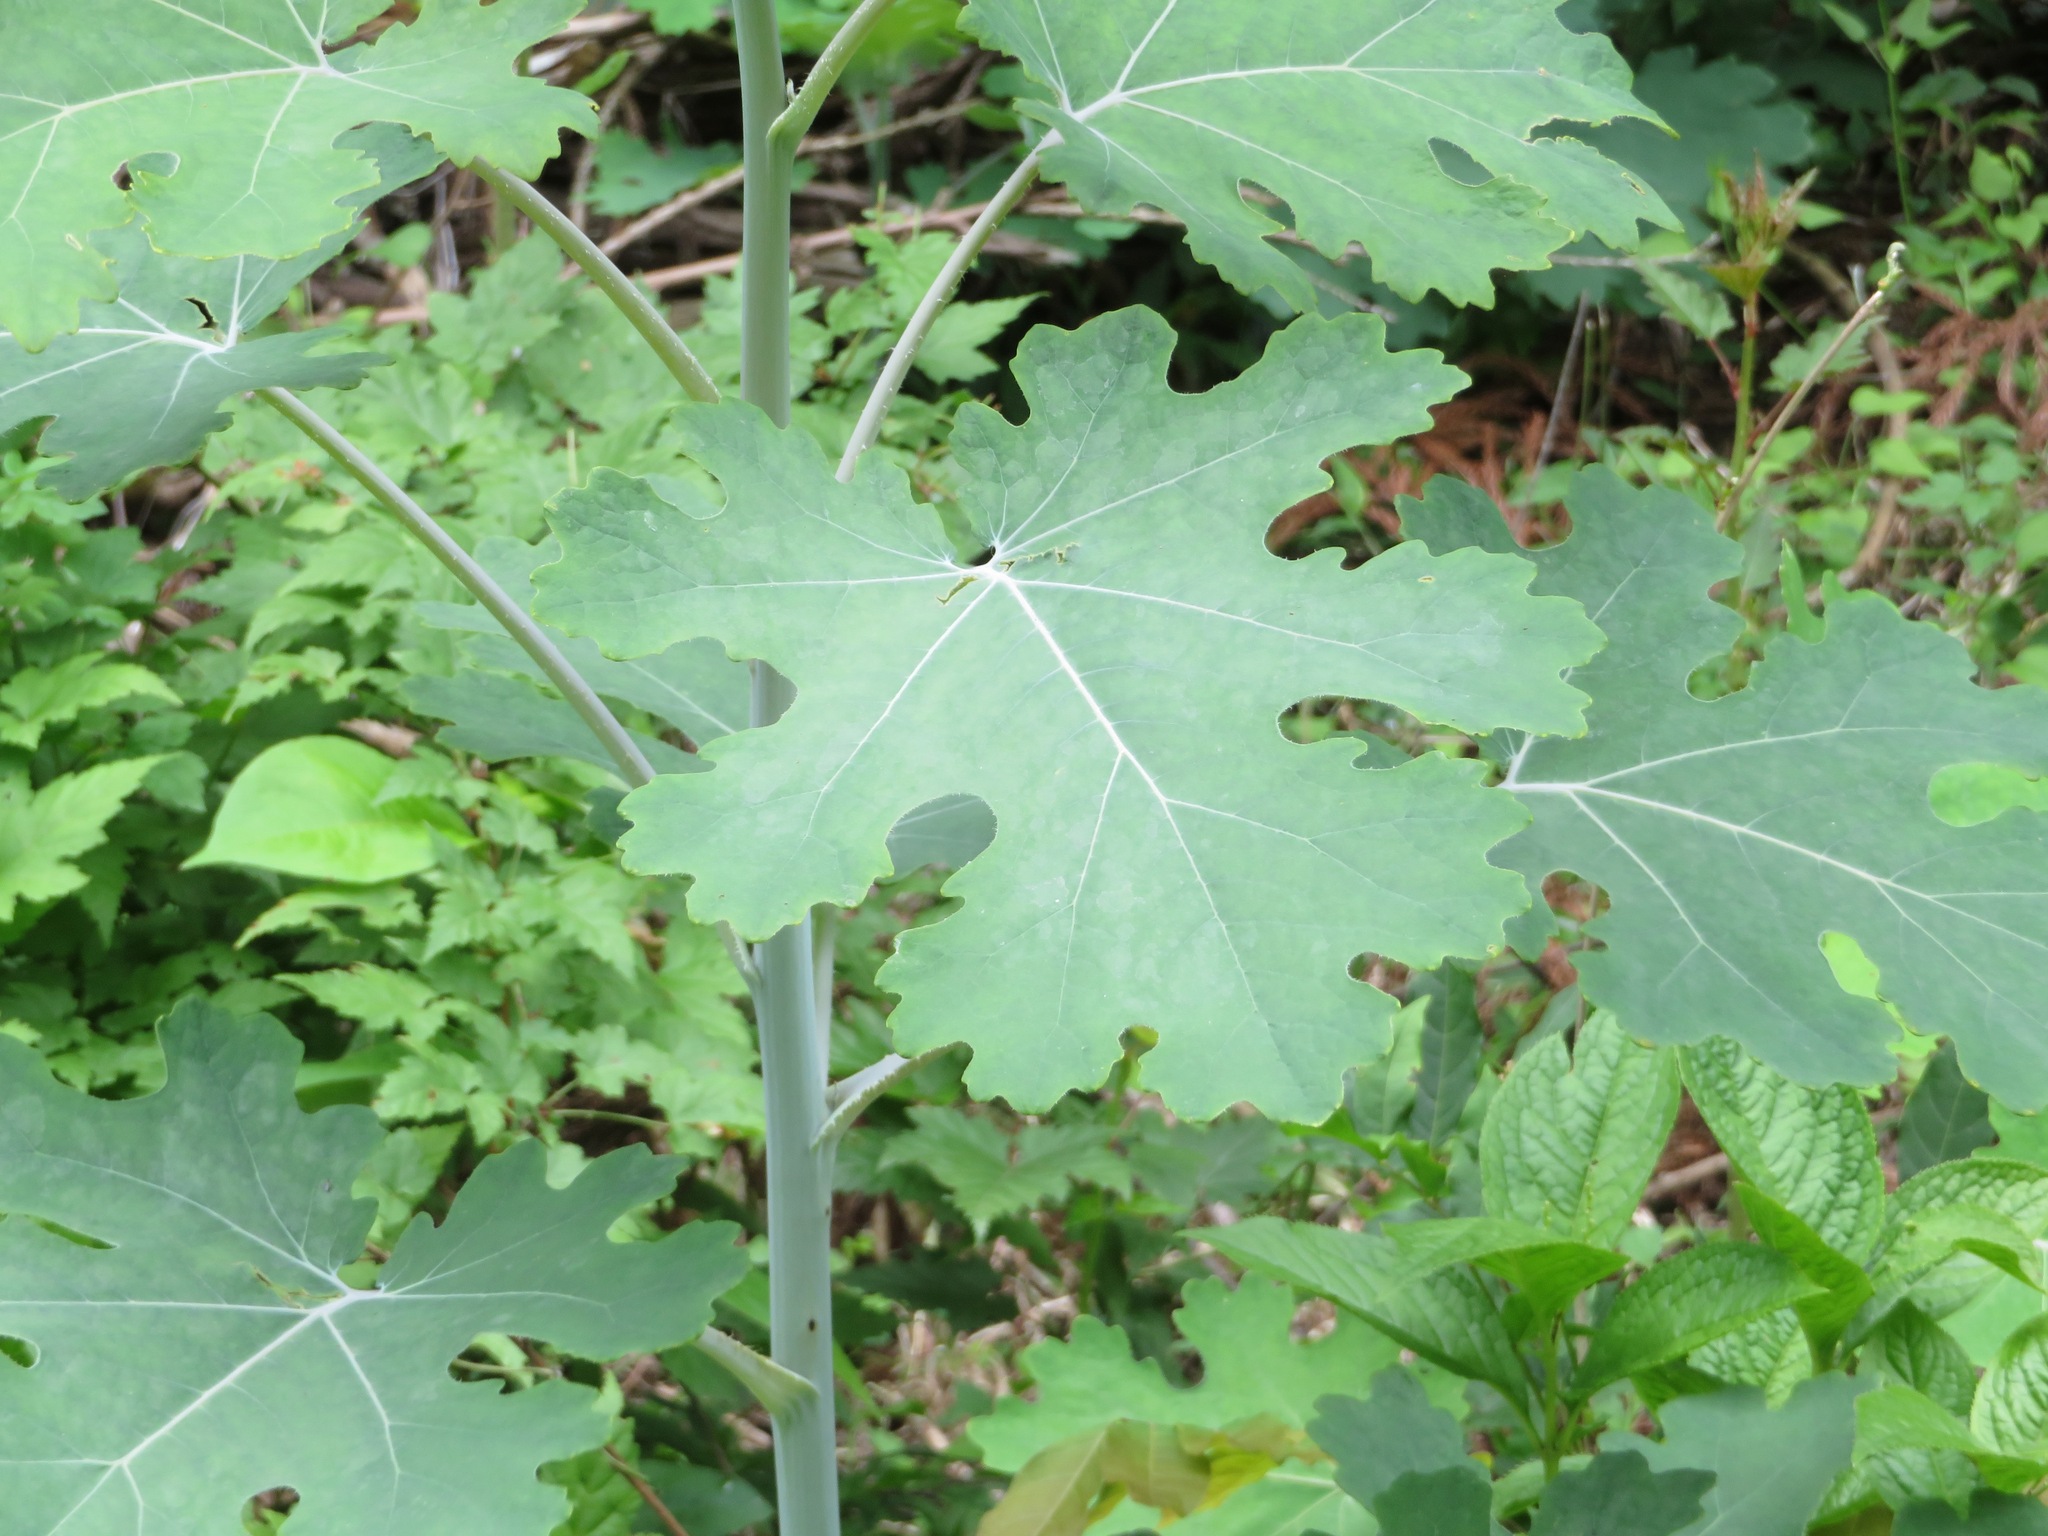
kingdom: Plantae
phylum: Tracheophyta
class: Magnoliopsida
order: Ranunculales
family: Papaveraceae
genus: Macleaya
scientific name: Macleaya cordata
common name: Plume poppy
